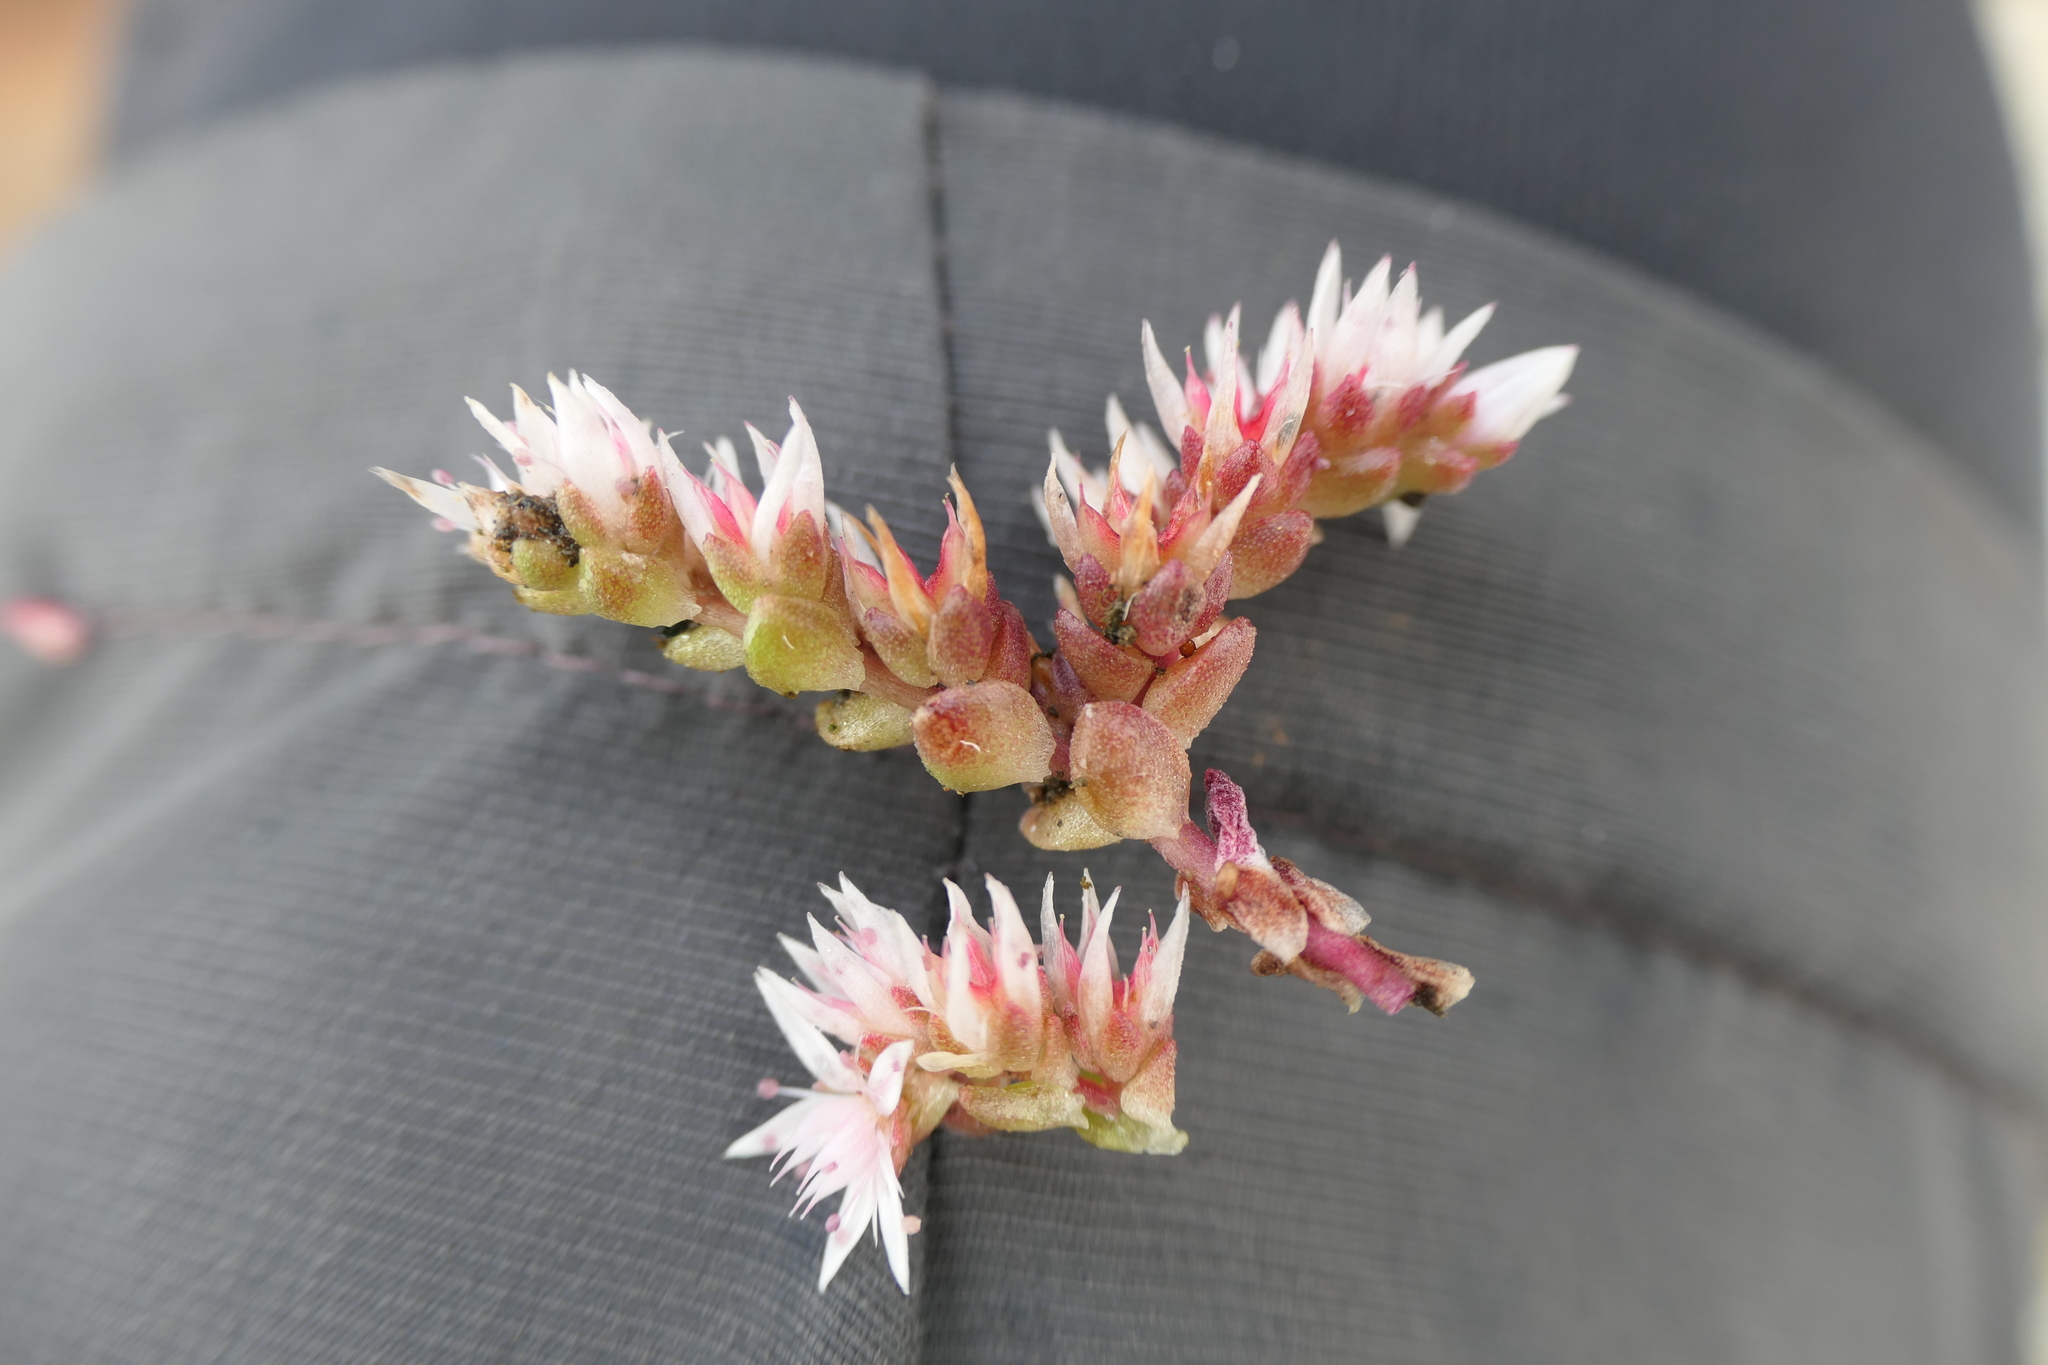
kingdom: Plantae
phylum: Tracheophyta
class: Magnoliopsida
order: Saxifragales
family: Crassulaceae
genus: Sedum
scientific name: Sedum anglicum
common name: English stonecrop
